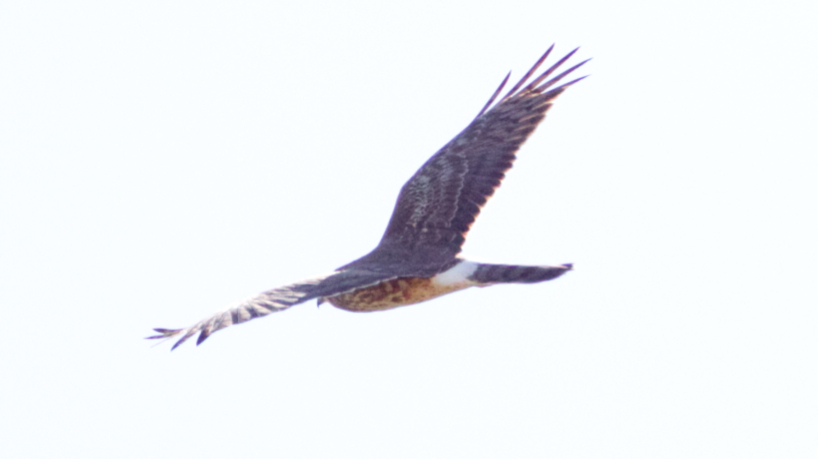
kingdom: Animalia
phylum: Chordata
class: Aves
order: Accipitriformes
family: Accipitridae
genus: Circus
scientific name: Circus cyaneus
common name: Hen harrier
